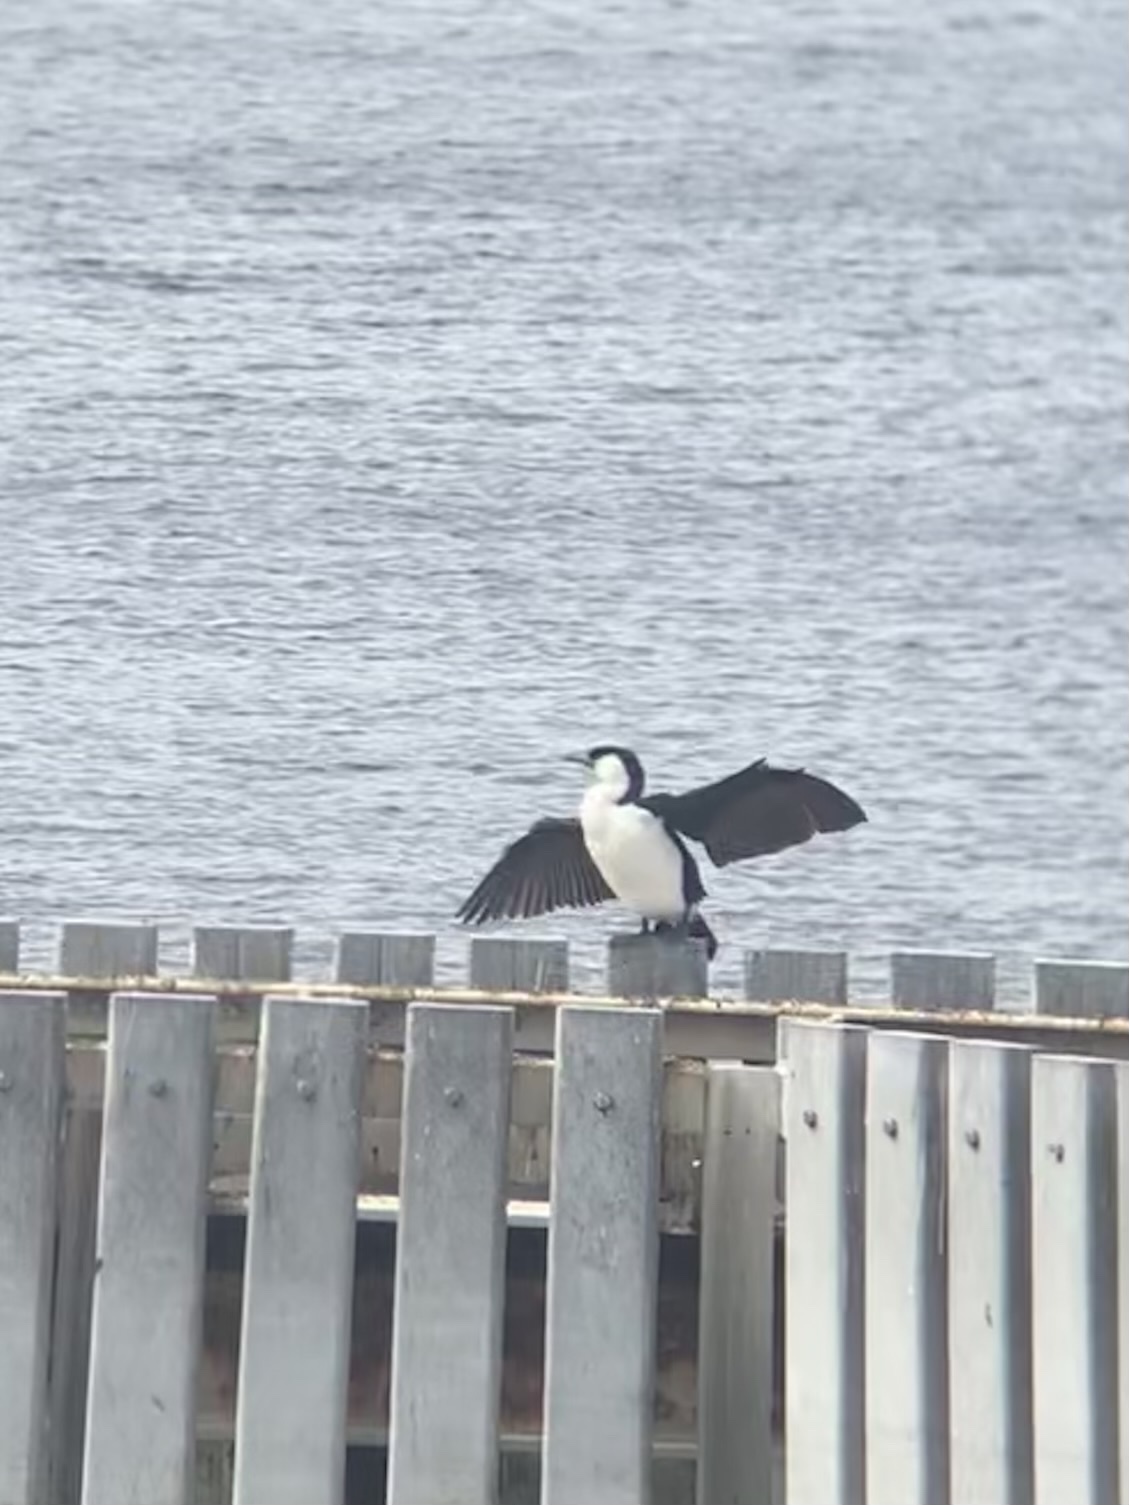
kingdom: Animalia
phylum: Chordata
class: Aves
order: Suliformes
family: Phalacrocoracidae
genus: Phalacrocorax
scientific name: Phalacrocorax fuscescens
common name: Black-faced cormorant
